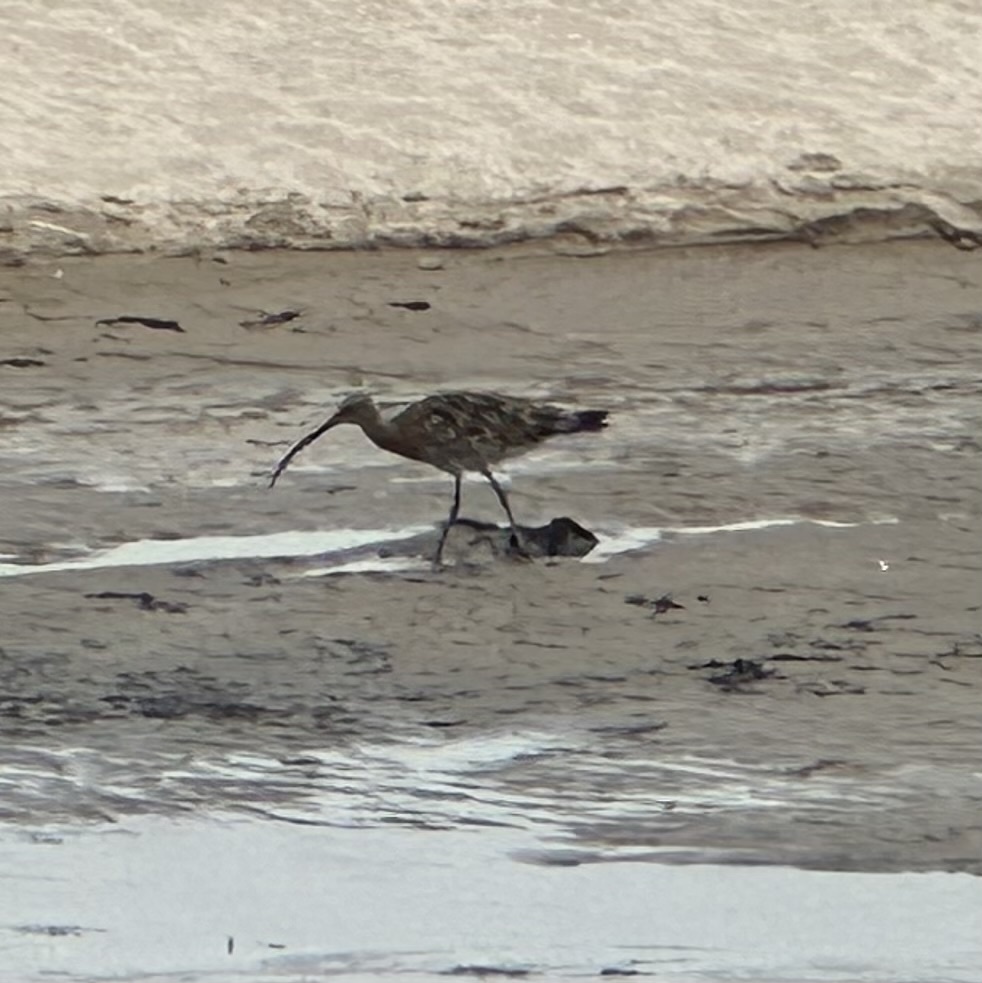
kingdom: Animalia
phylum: Chordata
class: Aves
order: Charadriiformes
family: Scolopacidae
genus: Numenius
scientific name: Numenius arquata
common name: Eurasian curlew
